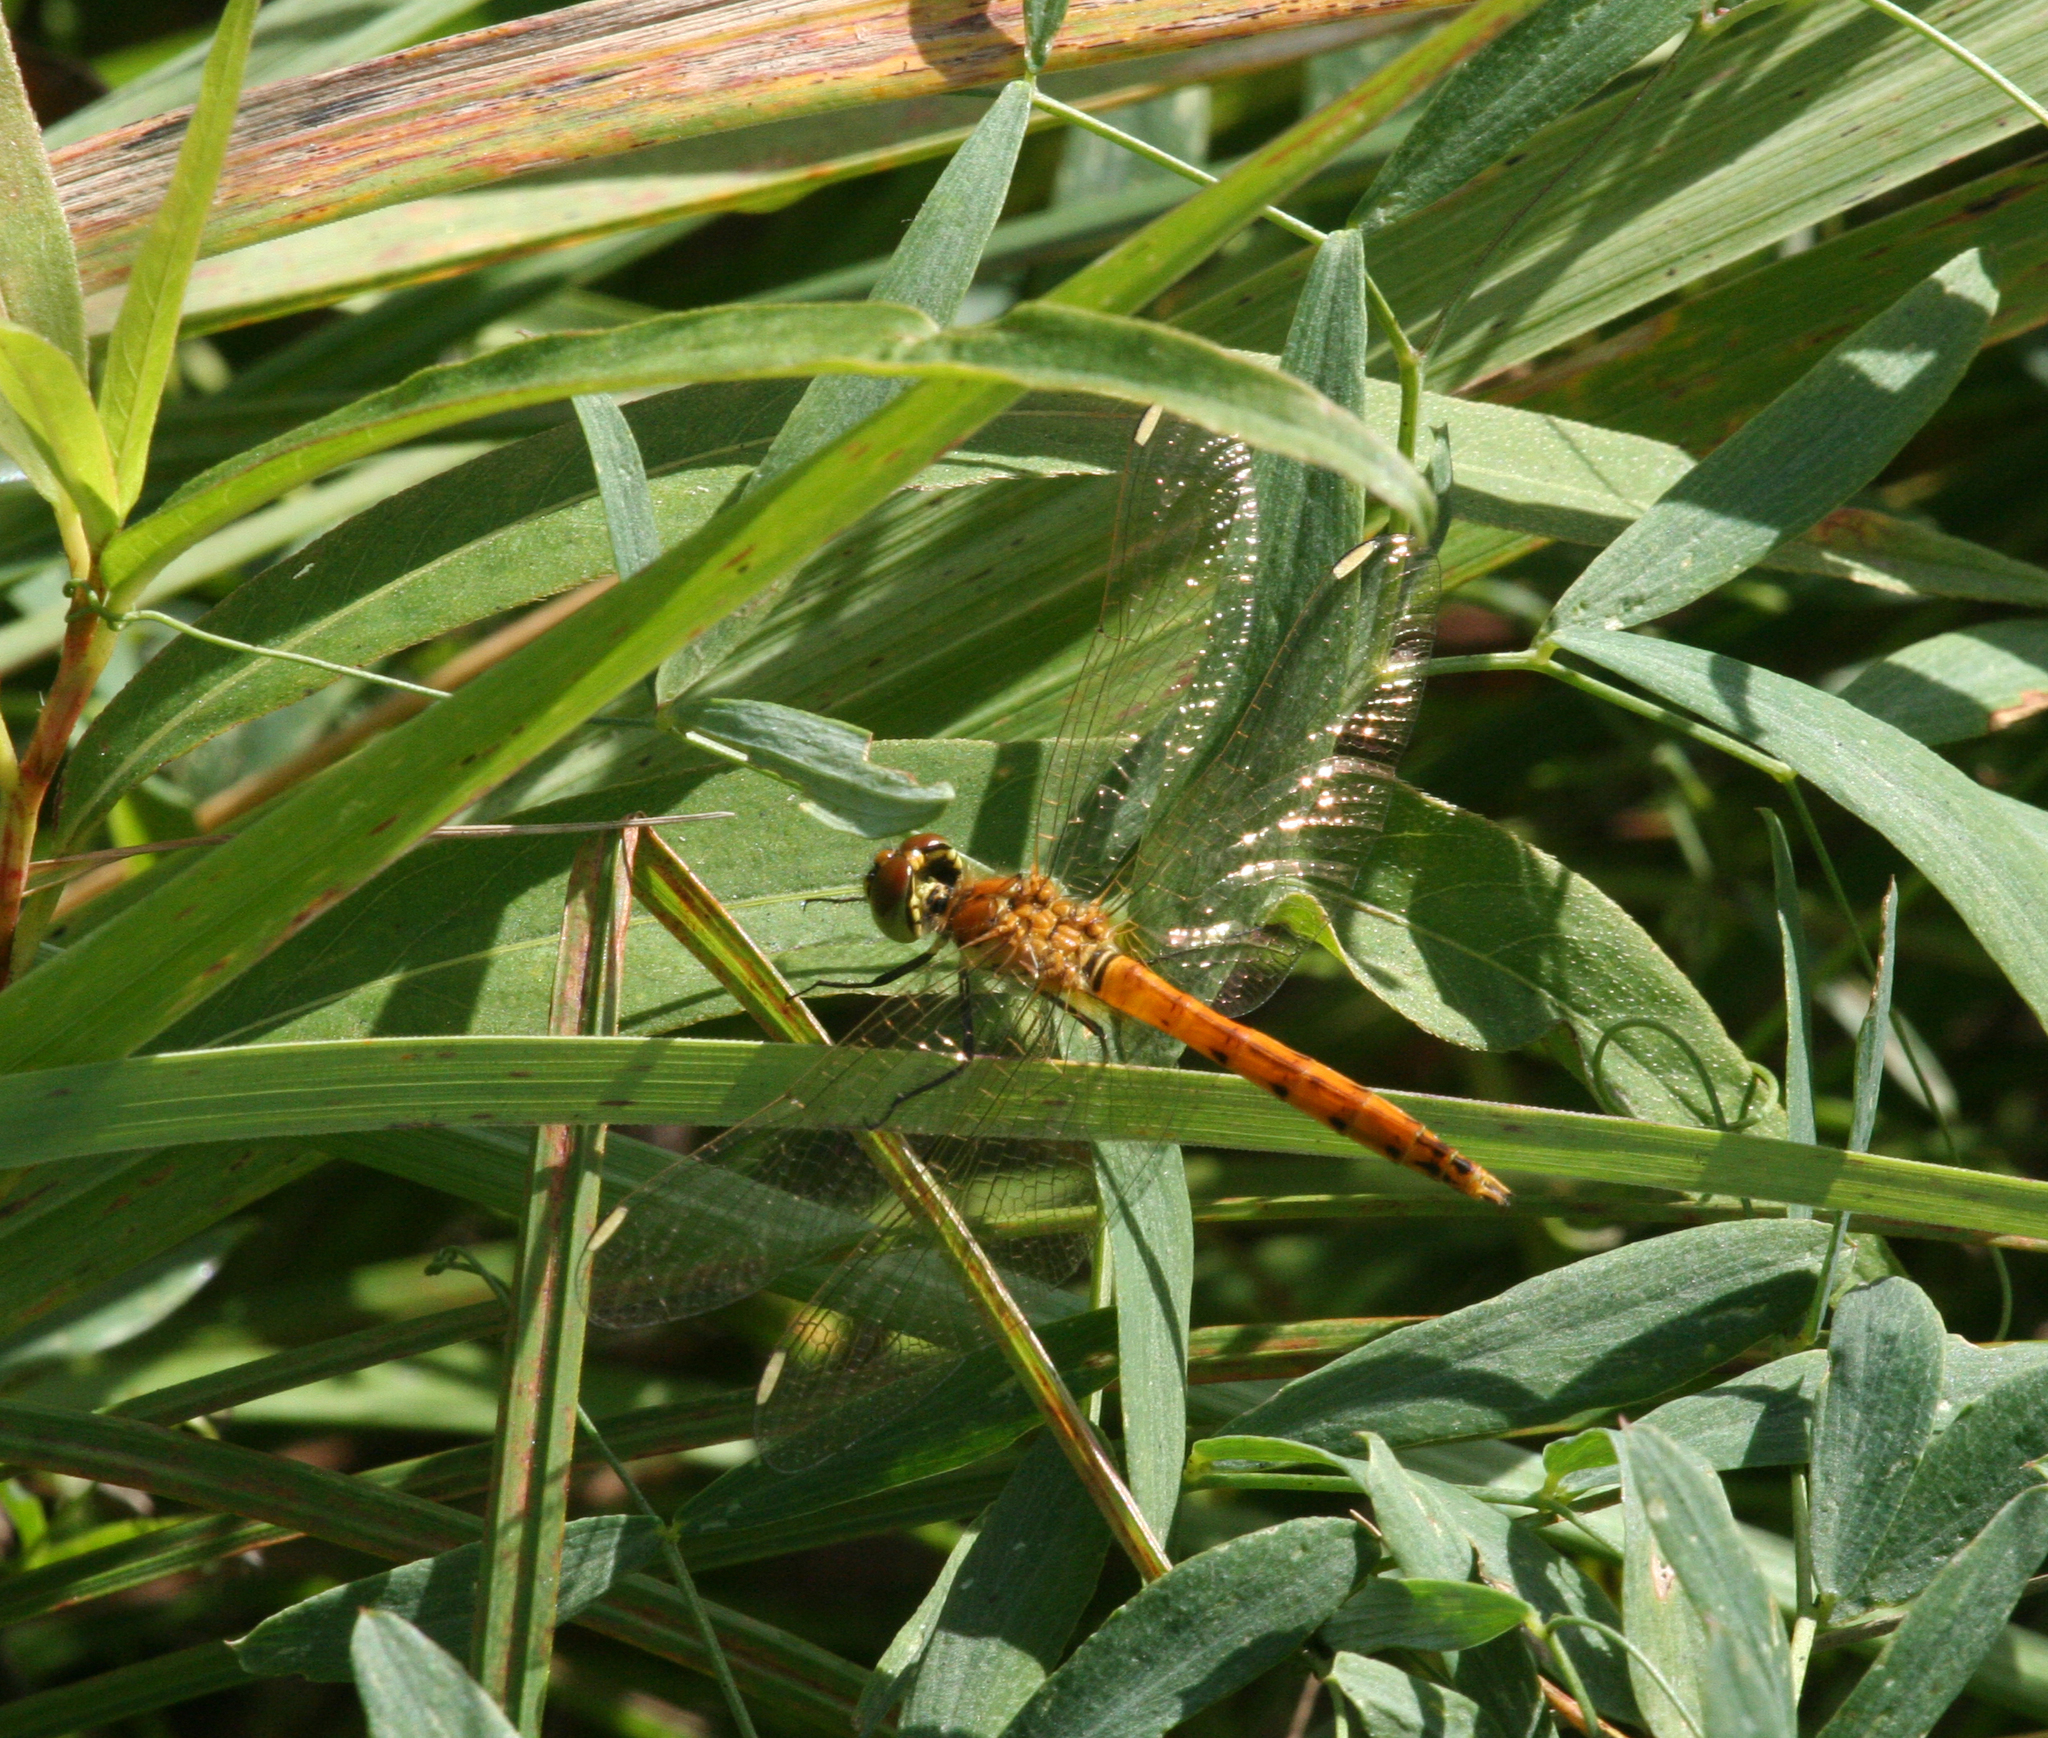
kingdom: Animalia
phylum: Arthropoda
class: Insecta
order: Odonata
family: Libellulidae
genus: Sympetrum
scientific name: Sympetrum depressiusculum
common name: Spotted darter
